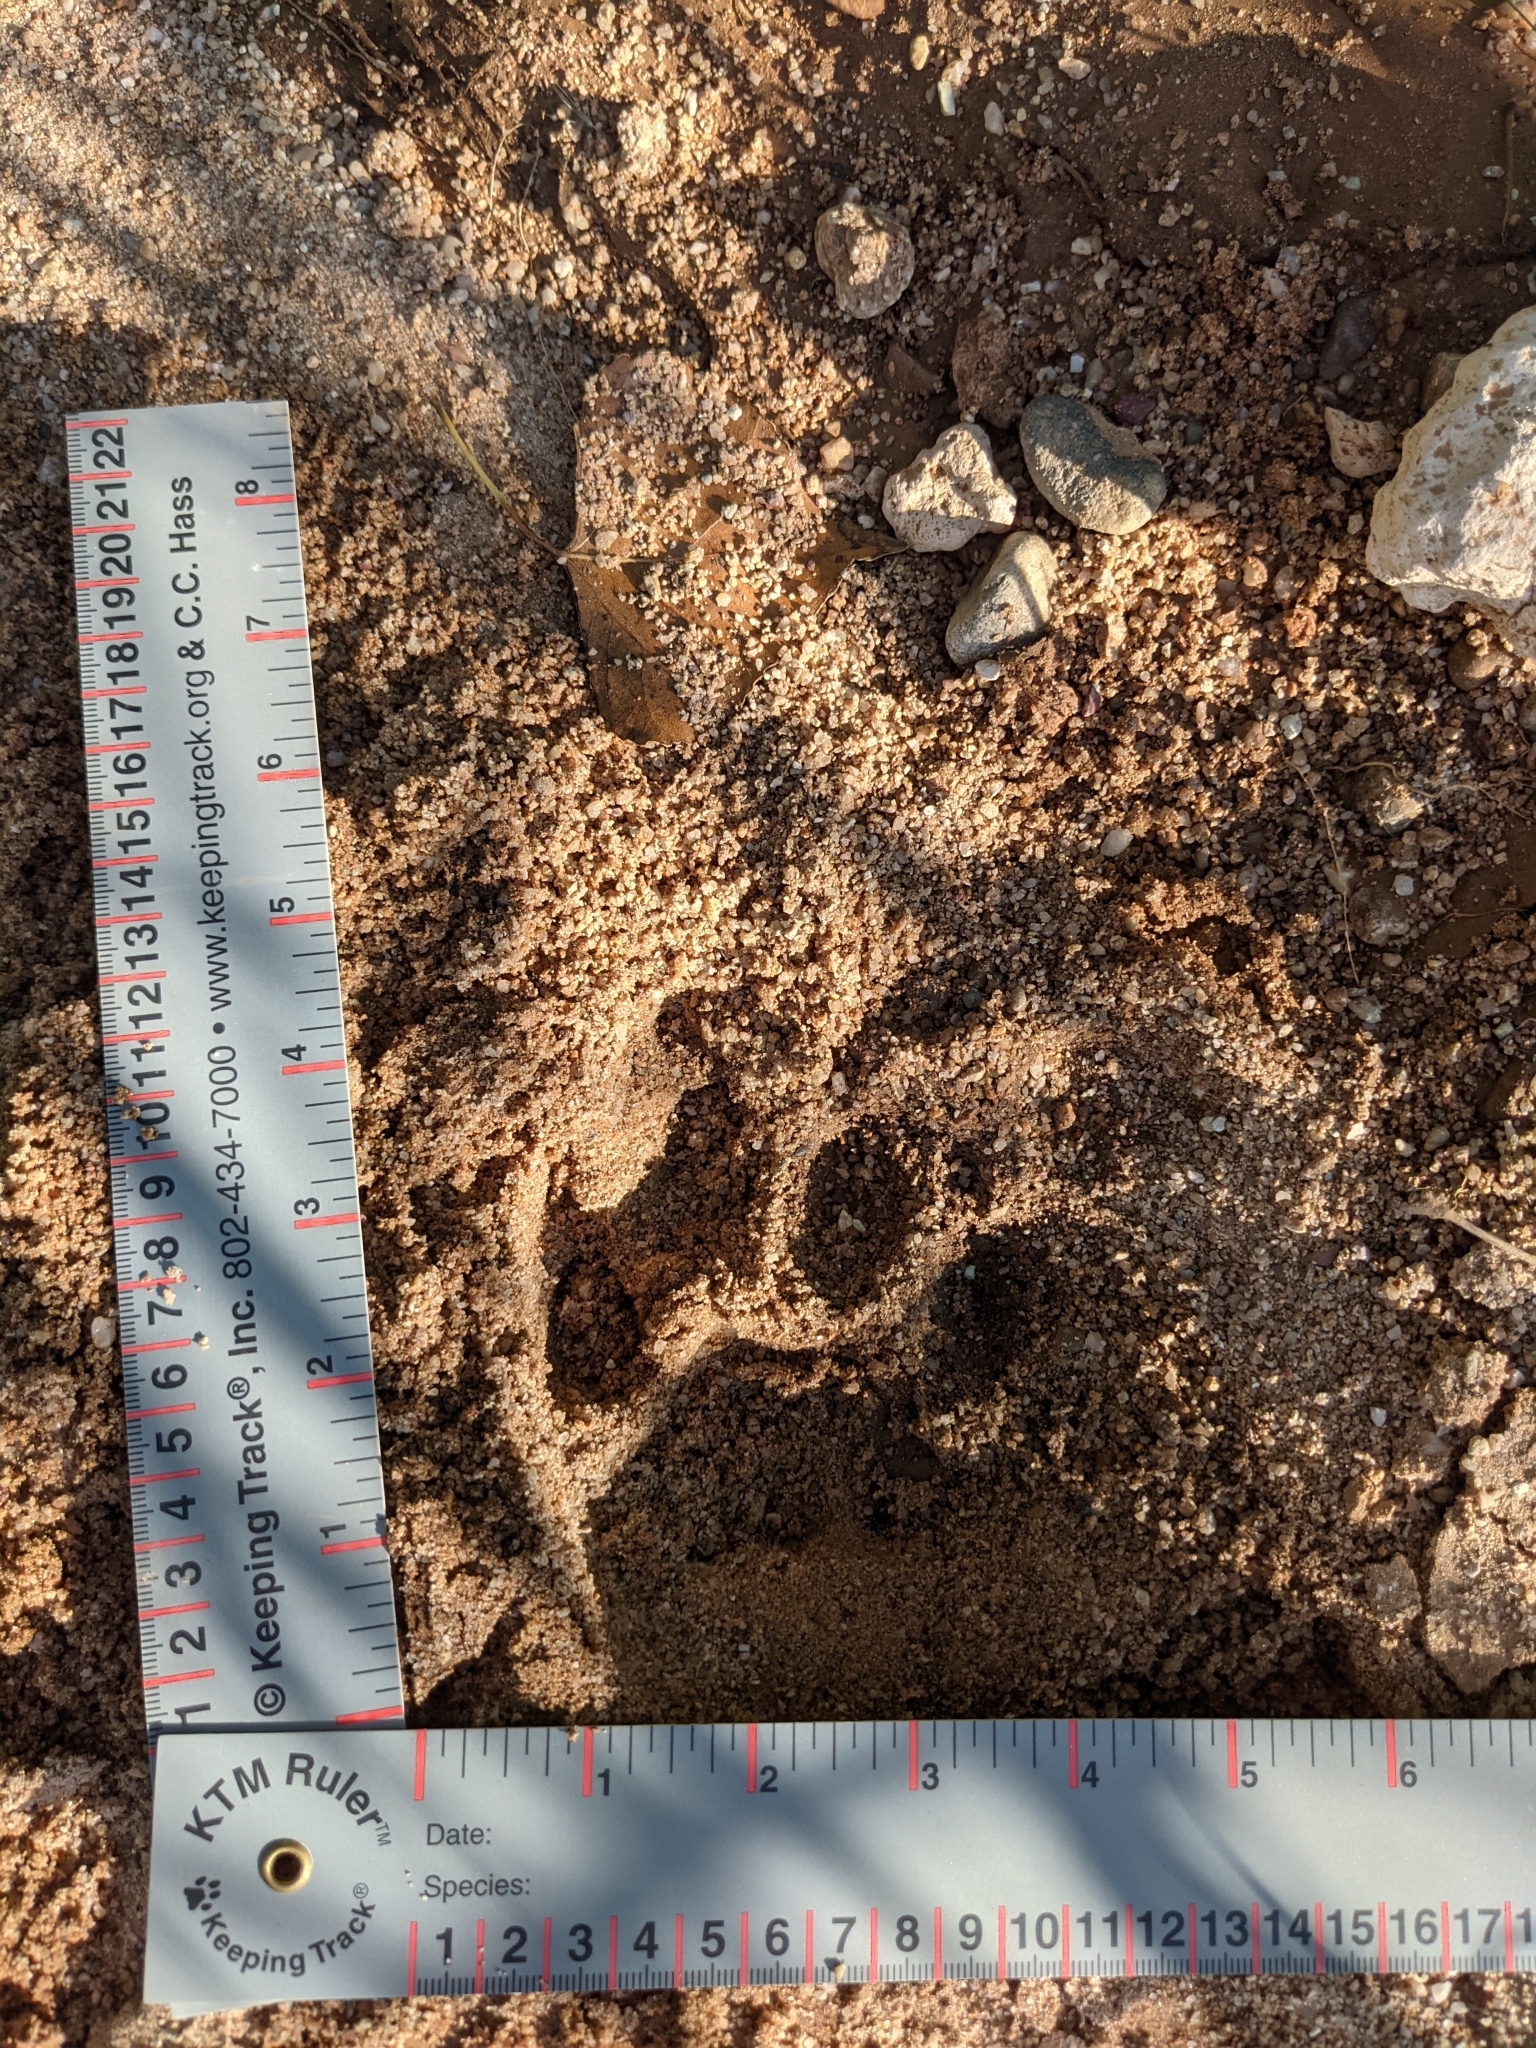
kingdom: Animalia
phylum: Chordata
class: Mammalia
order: Carnivora
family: Felidae
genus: Puma
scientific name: Puma concolor
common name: Puma
